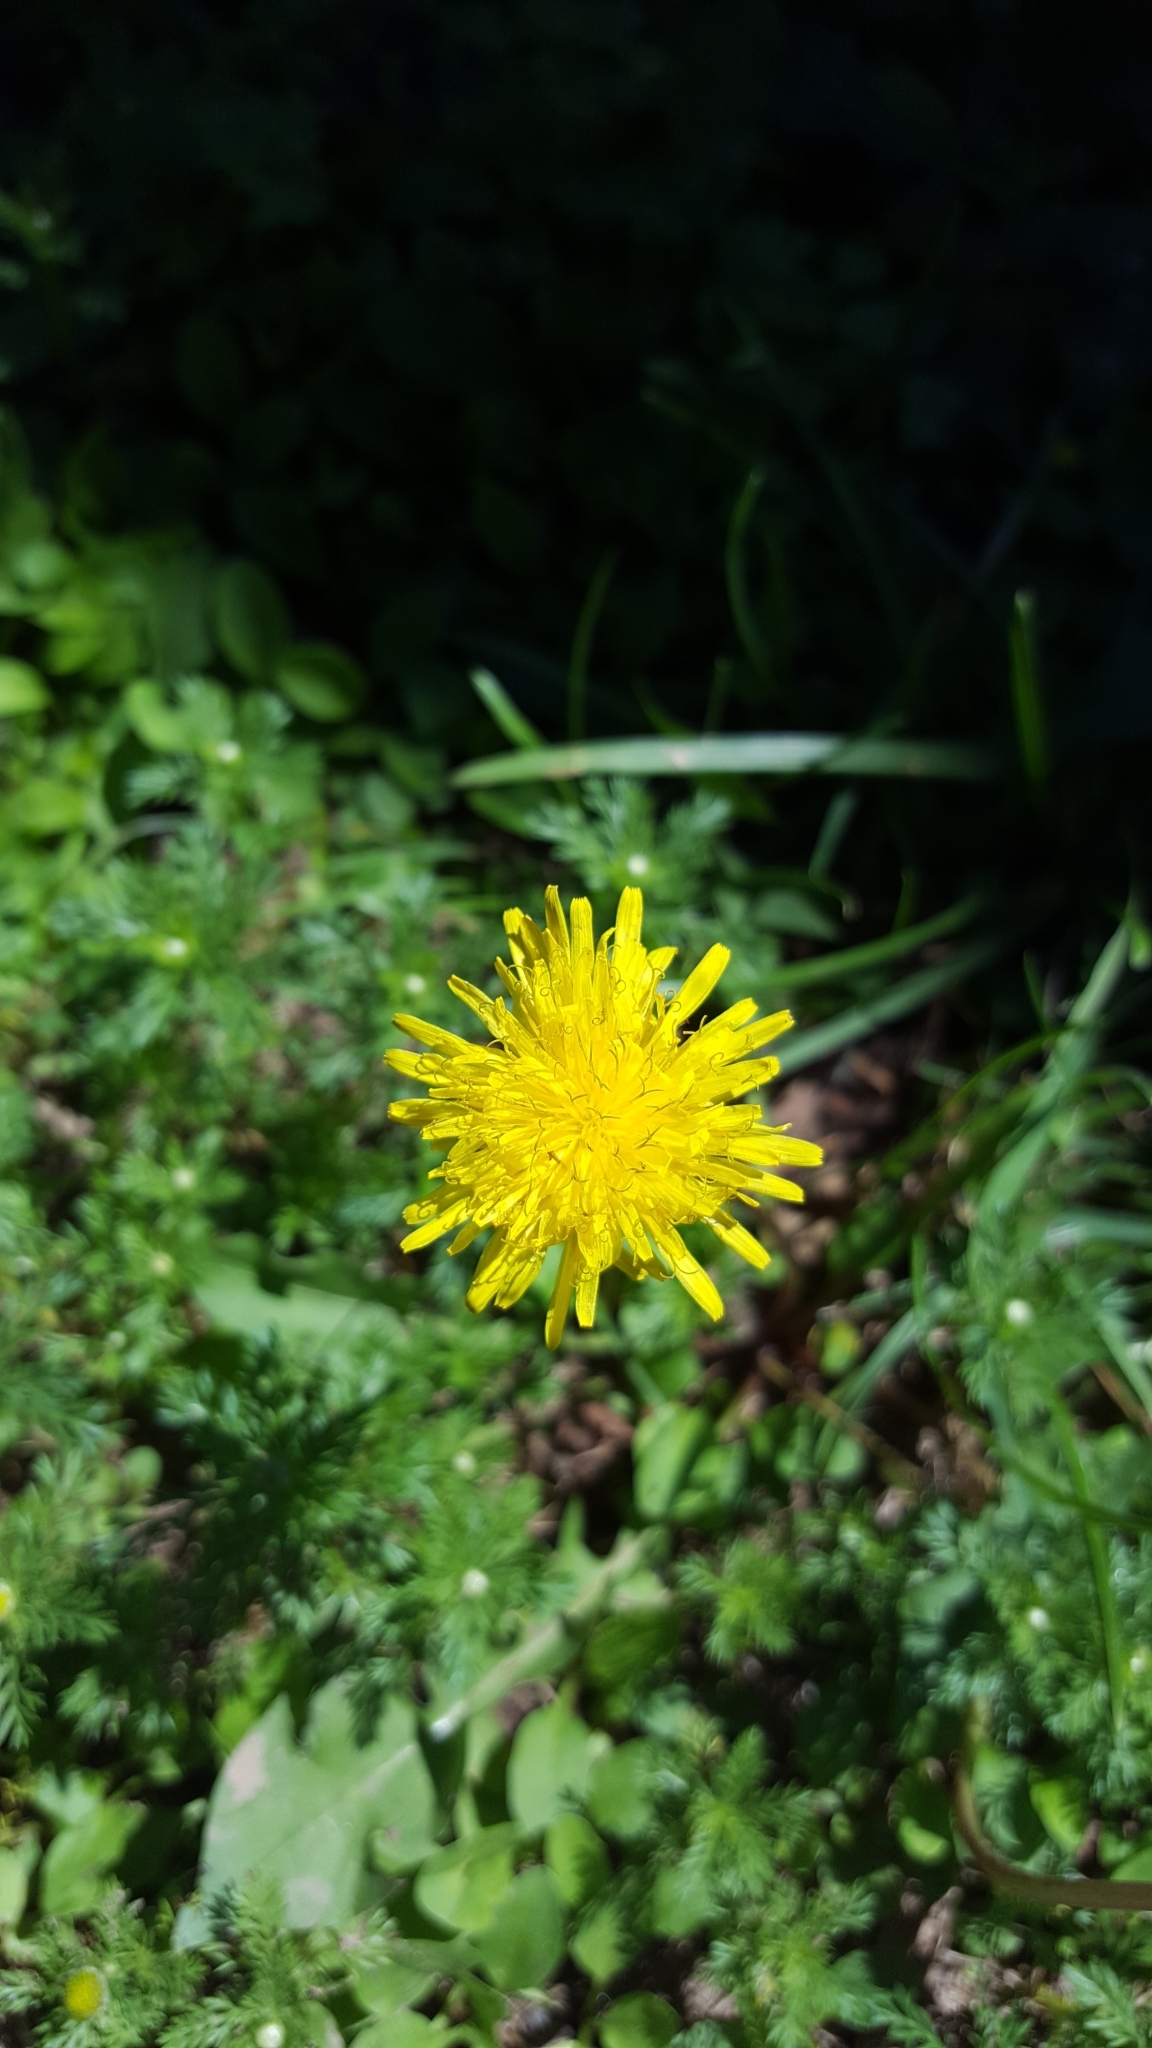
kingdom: Plantae
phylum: Tracheophyta
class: Magnoliopsida
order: Asterales
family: Asteraceae
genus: Taraxacum
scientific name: Taraxacum officinale
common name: Common dandelion
